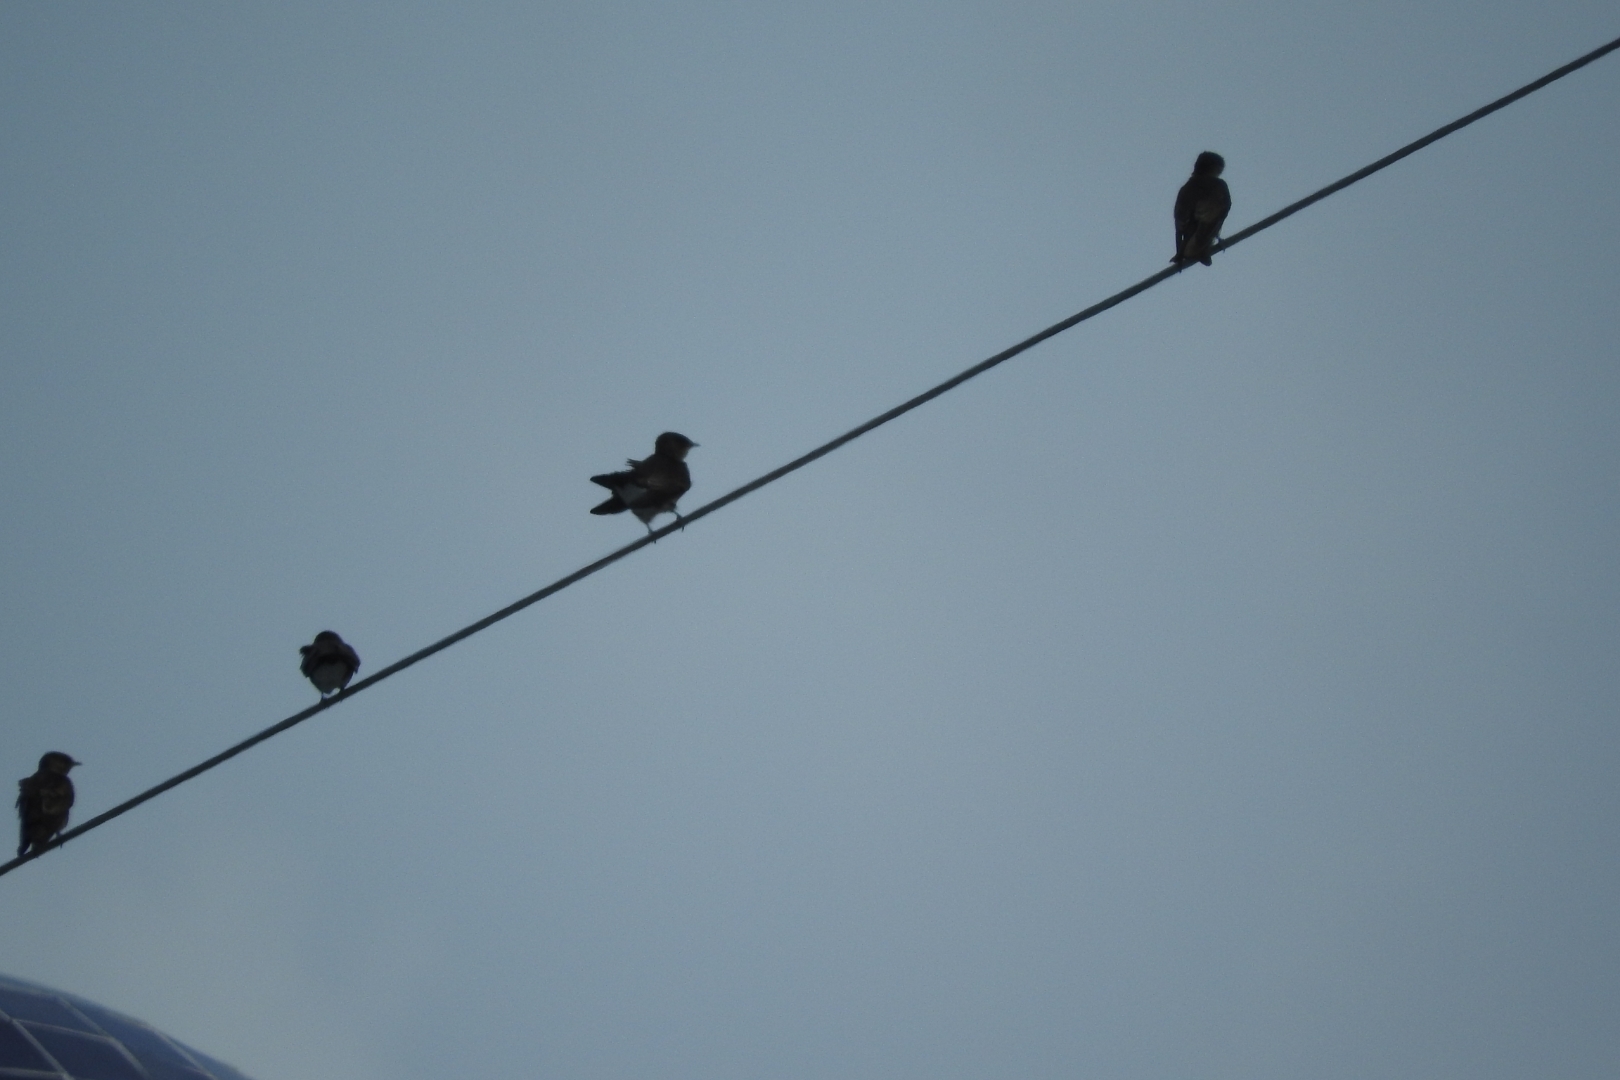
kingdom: Animalia
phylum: Chordata
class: Aves
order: Passeriformes
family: Hirundinidae
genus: Progne
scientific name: Progne chalybea
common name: Grey-breasted martin
